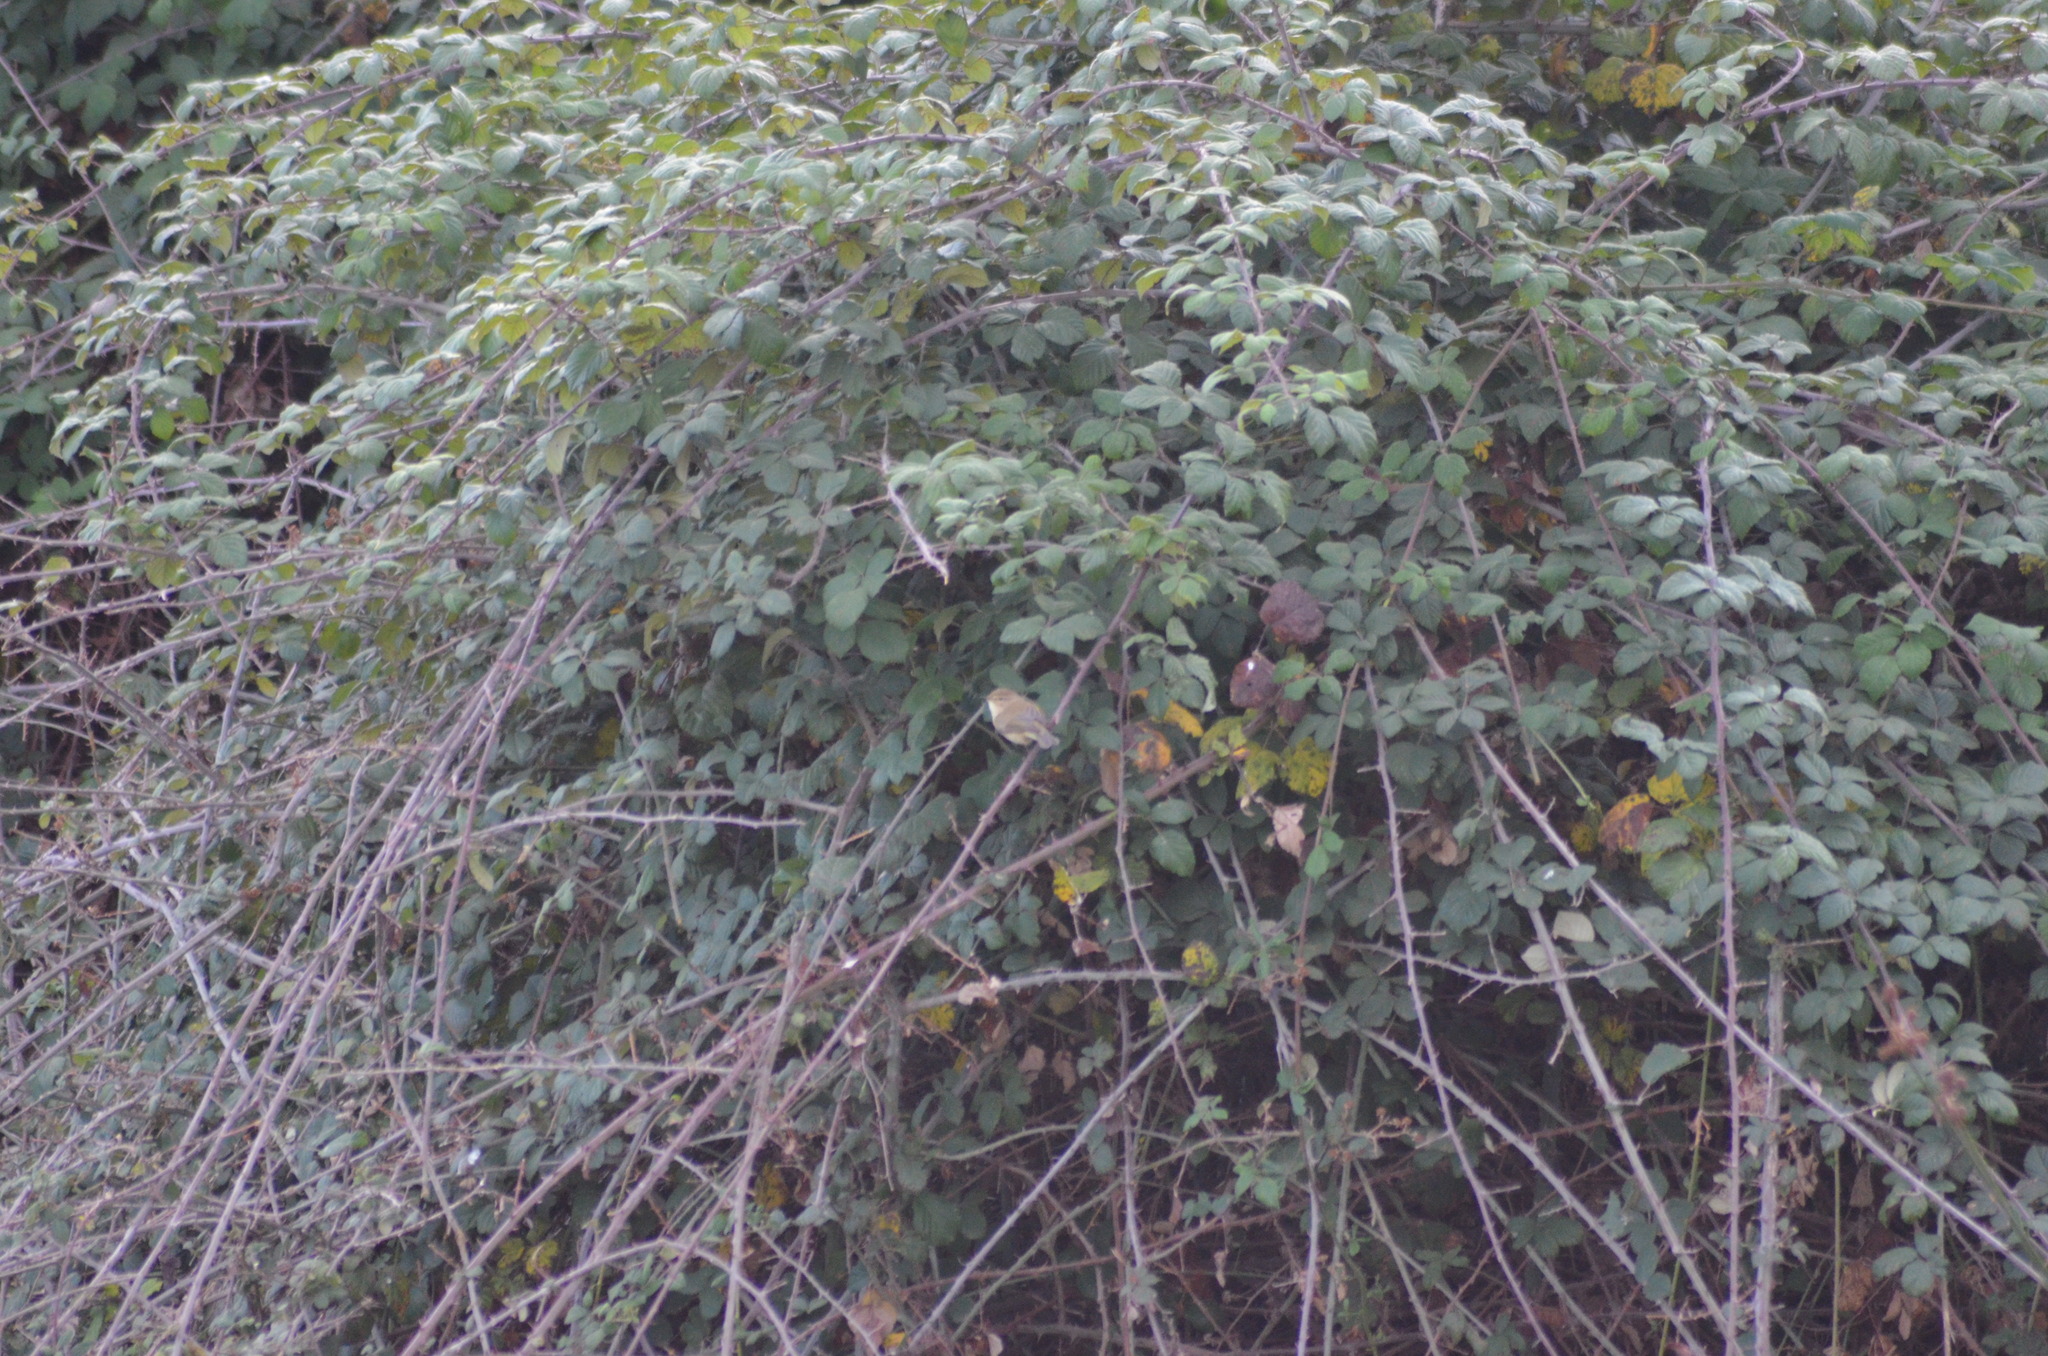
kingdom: Animalia
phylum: Chordata
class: Aves
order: Passeriformes
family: Phylloscopidae
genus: Phylloscopus
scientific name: Phylloscopus collybita
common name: Common chiffchaff
